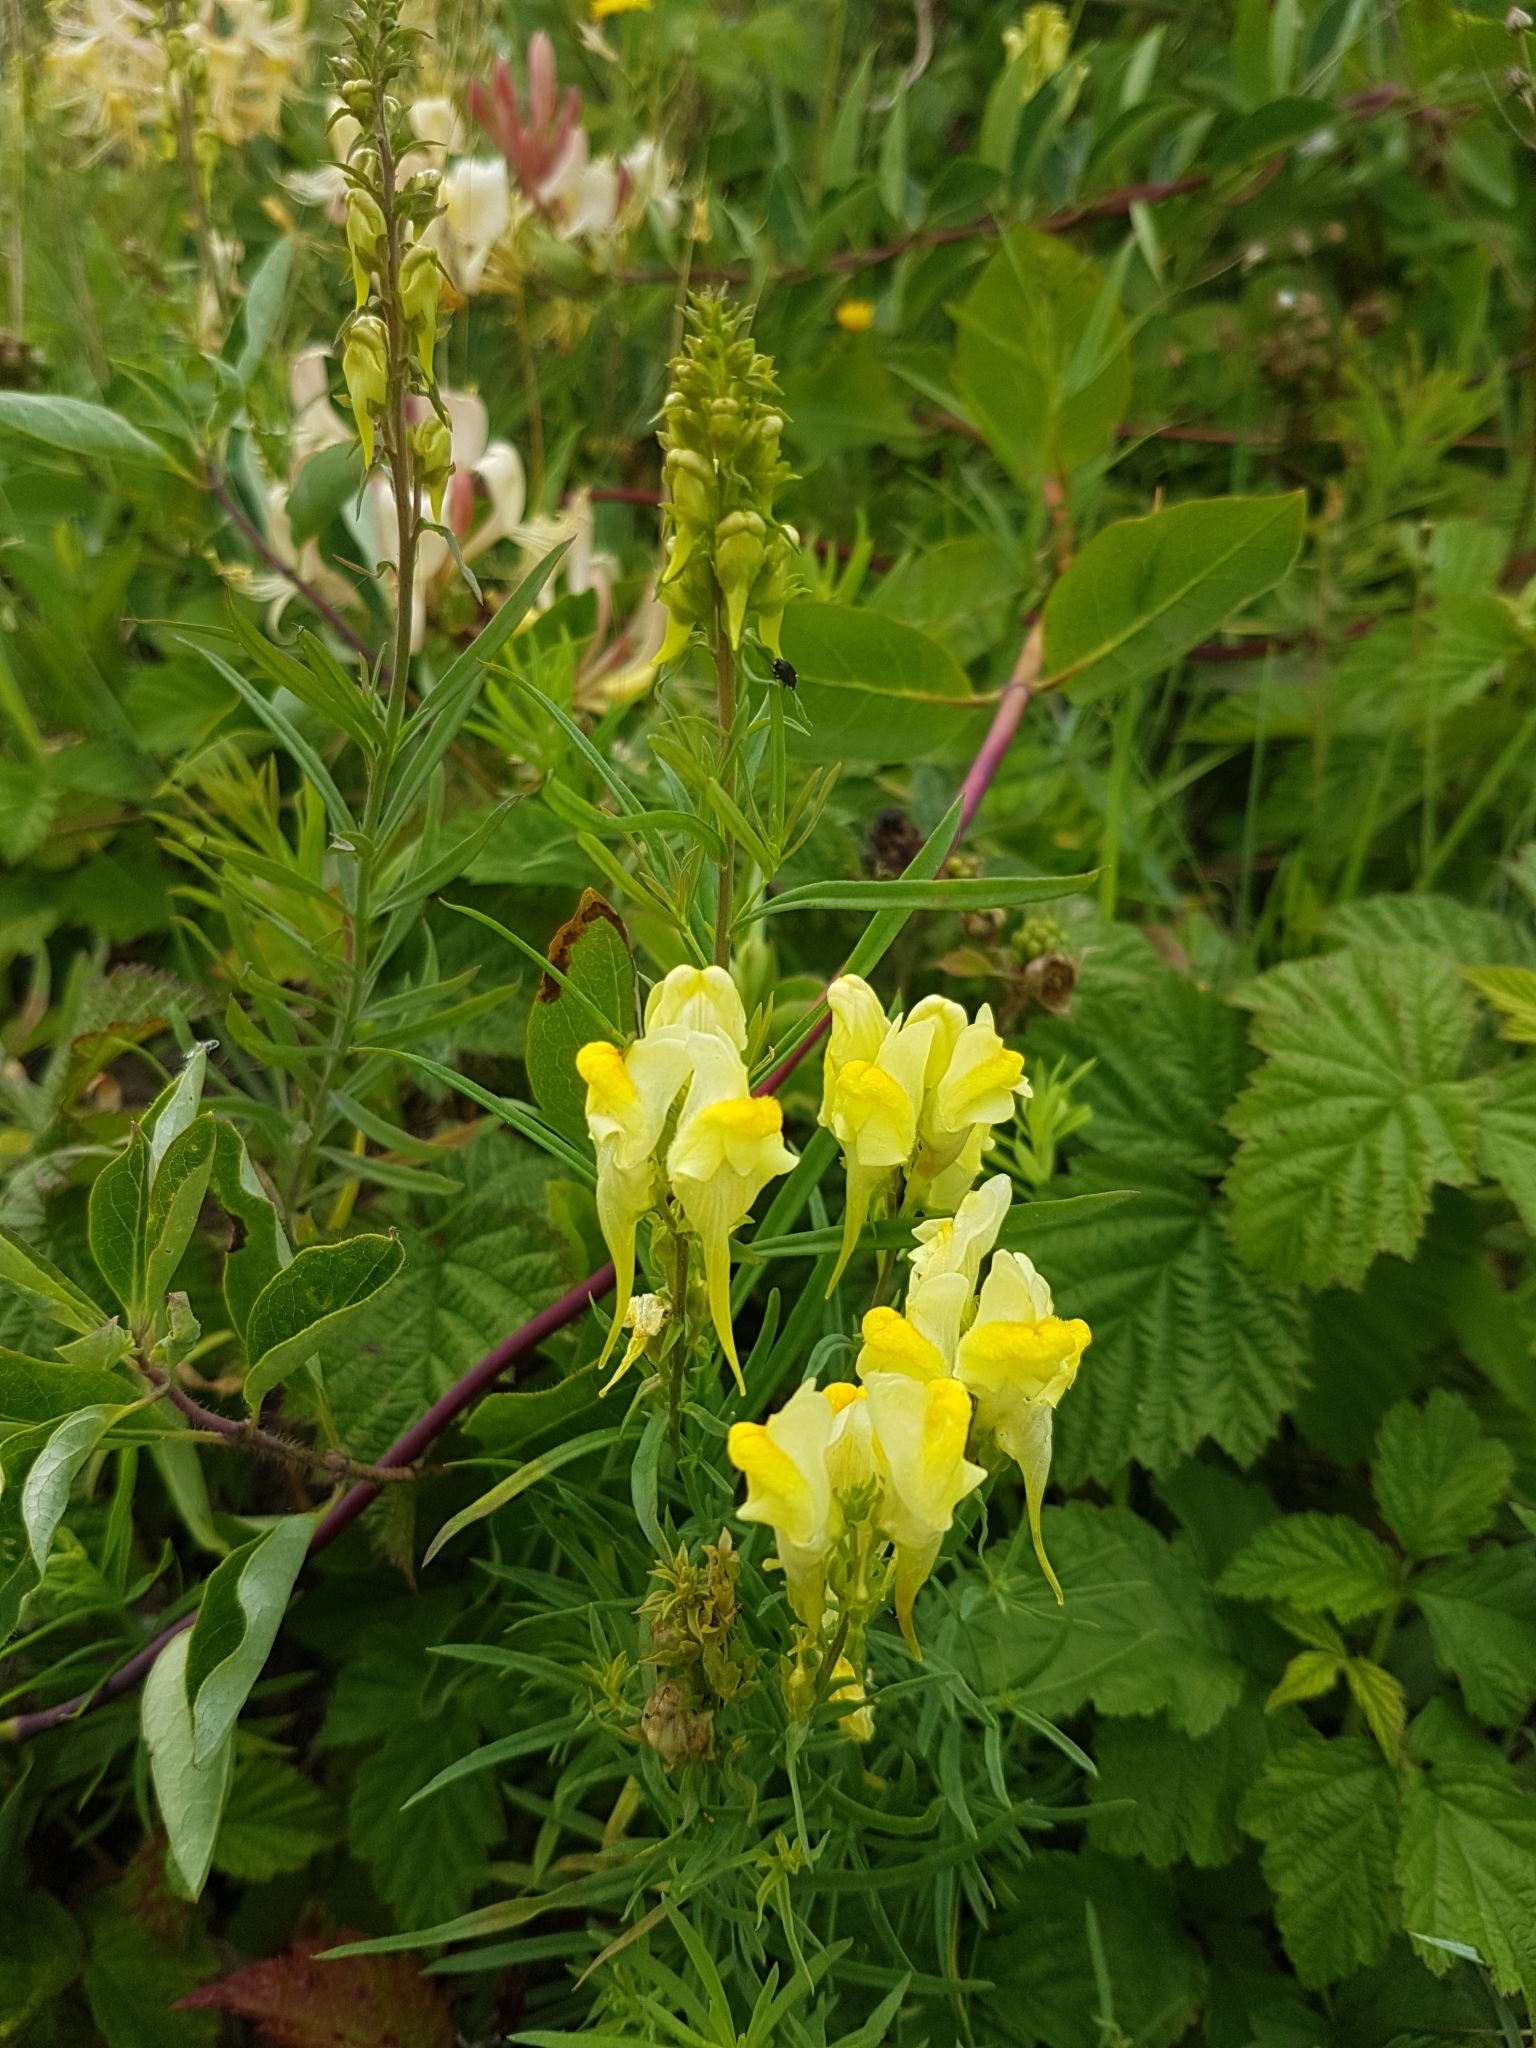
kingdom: Plantae
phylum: Tracheophyta
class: Magnoliopsida
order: Lamiales
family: Plantaginaceae
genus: Linaria
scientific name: Linaria vulgaris
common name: Butter and eggs
